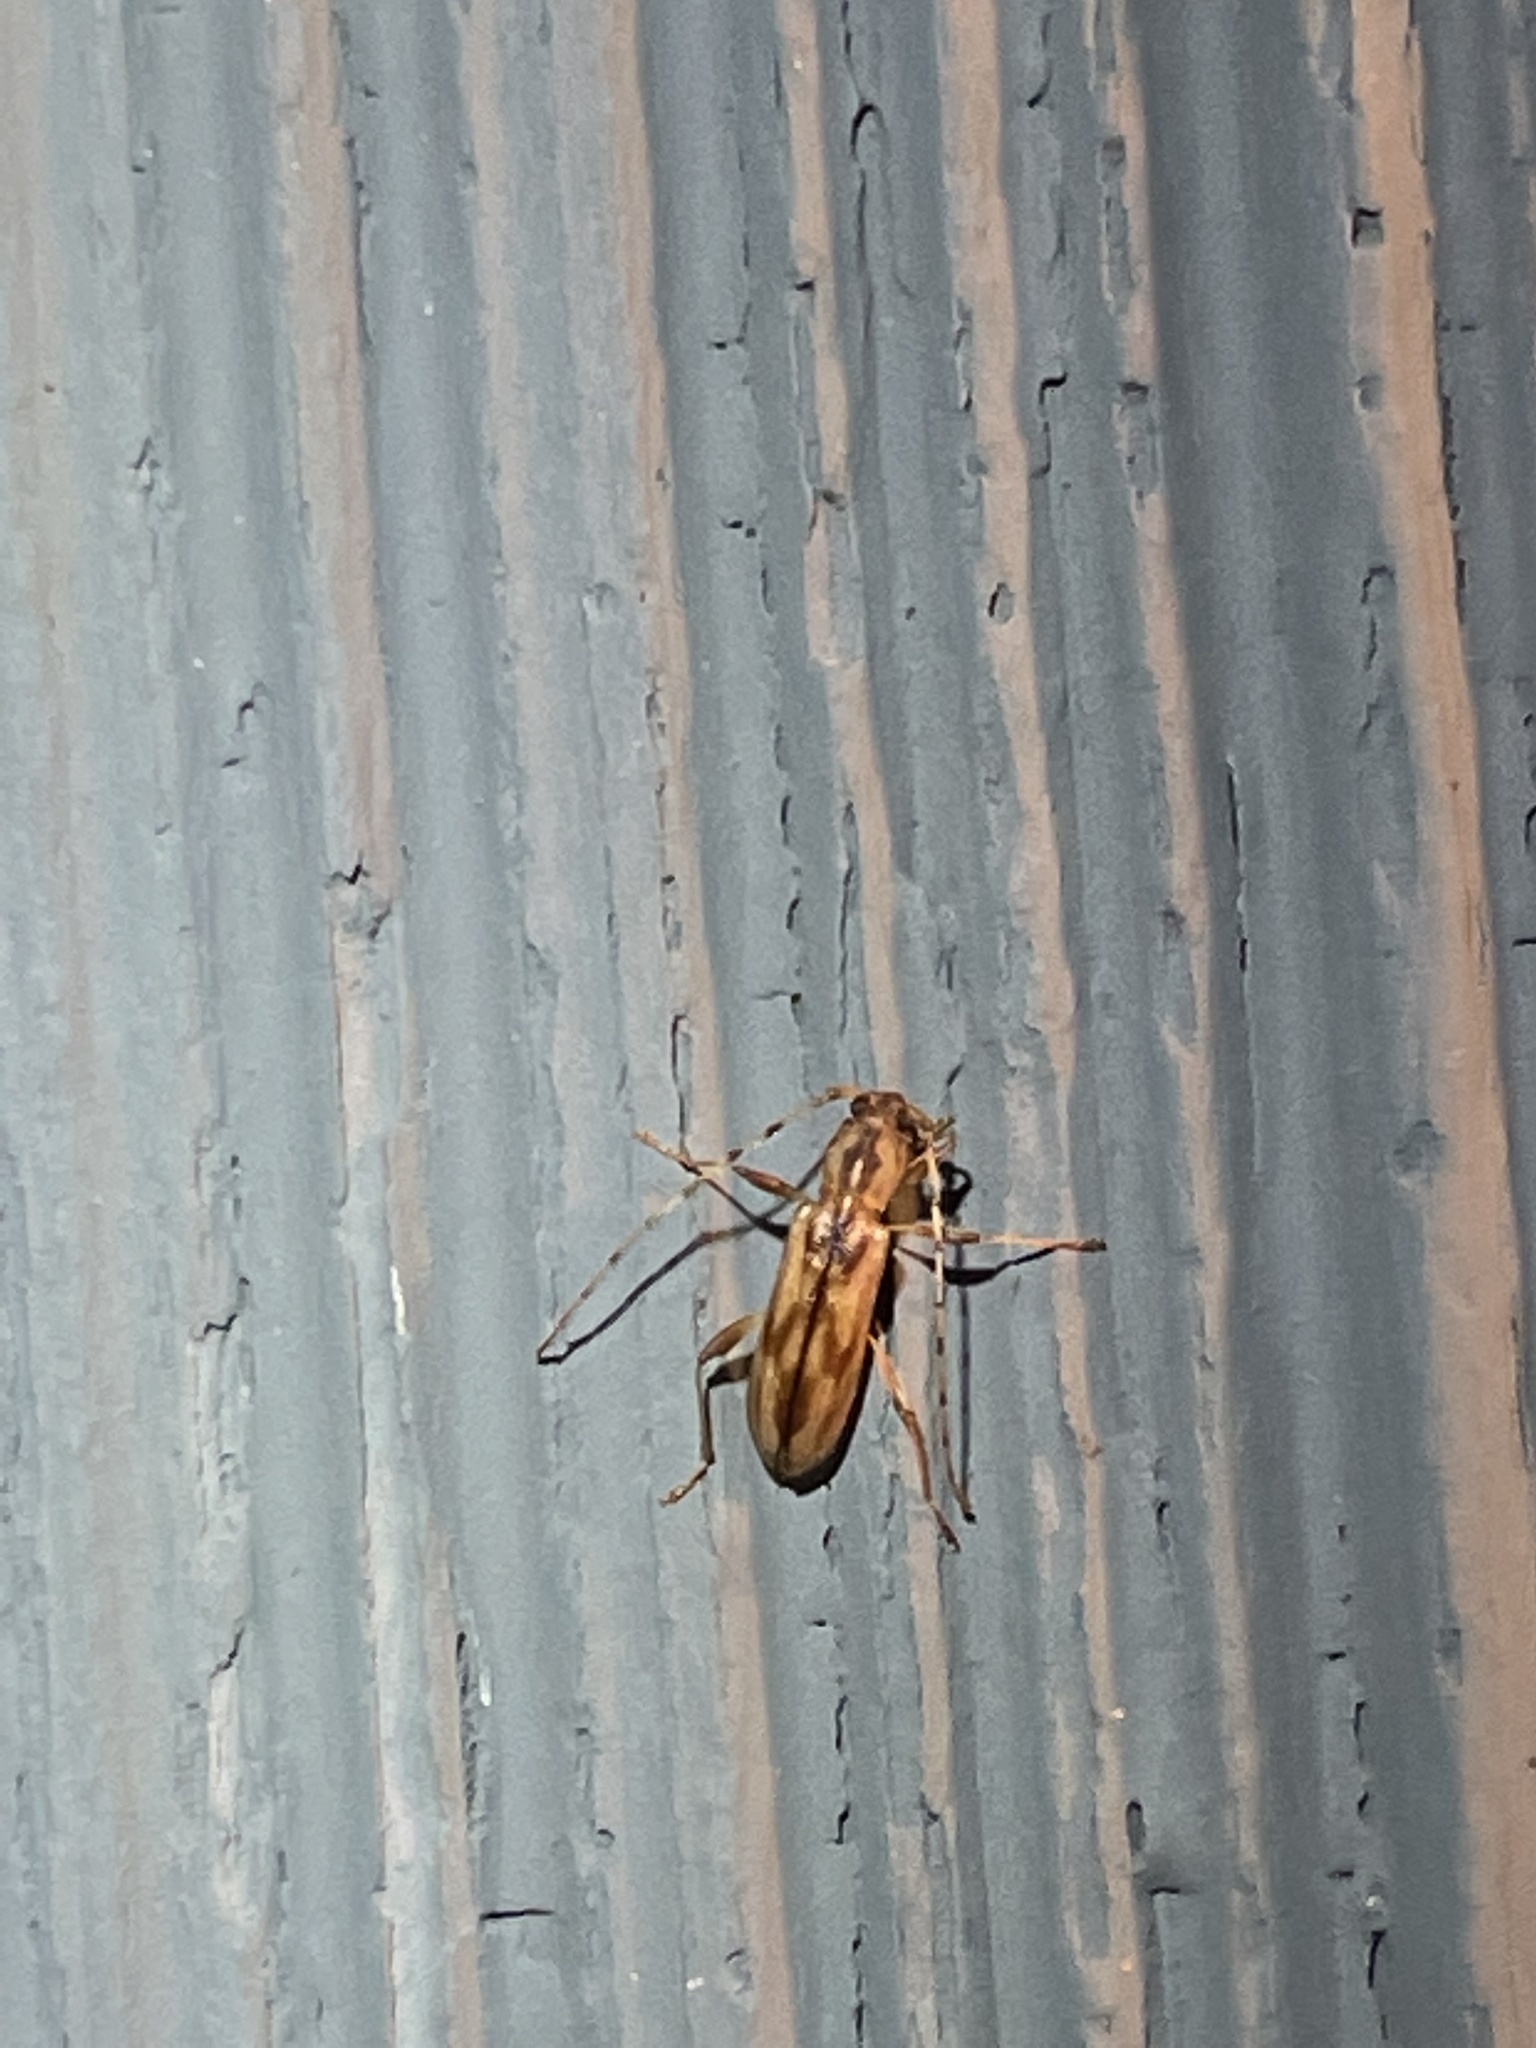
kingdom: Animalia
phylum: Arthropoda
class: Insecta
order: Coleoptera
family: Cerambycidae
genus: Curius
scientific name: Curius dentatus
